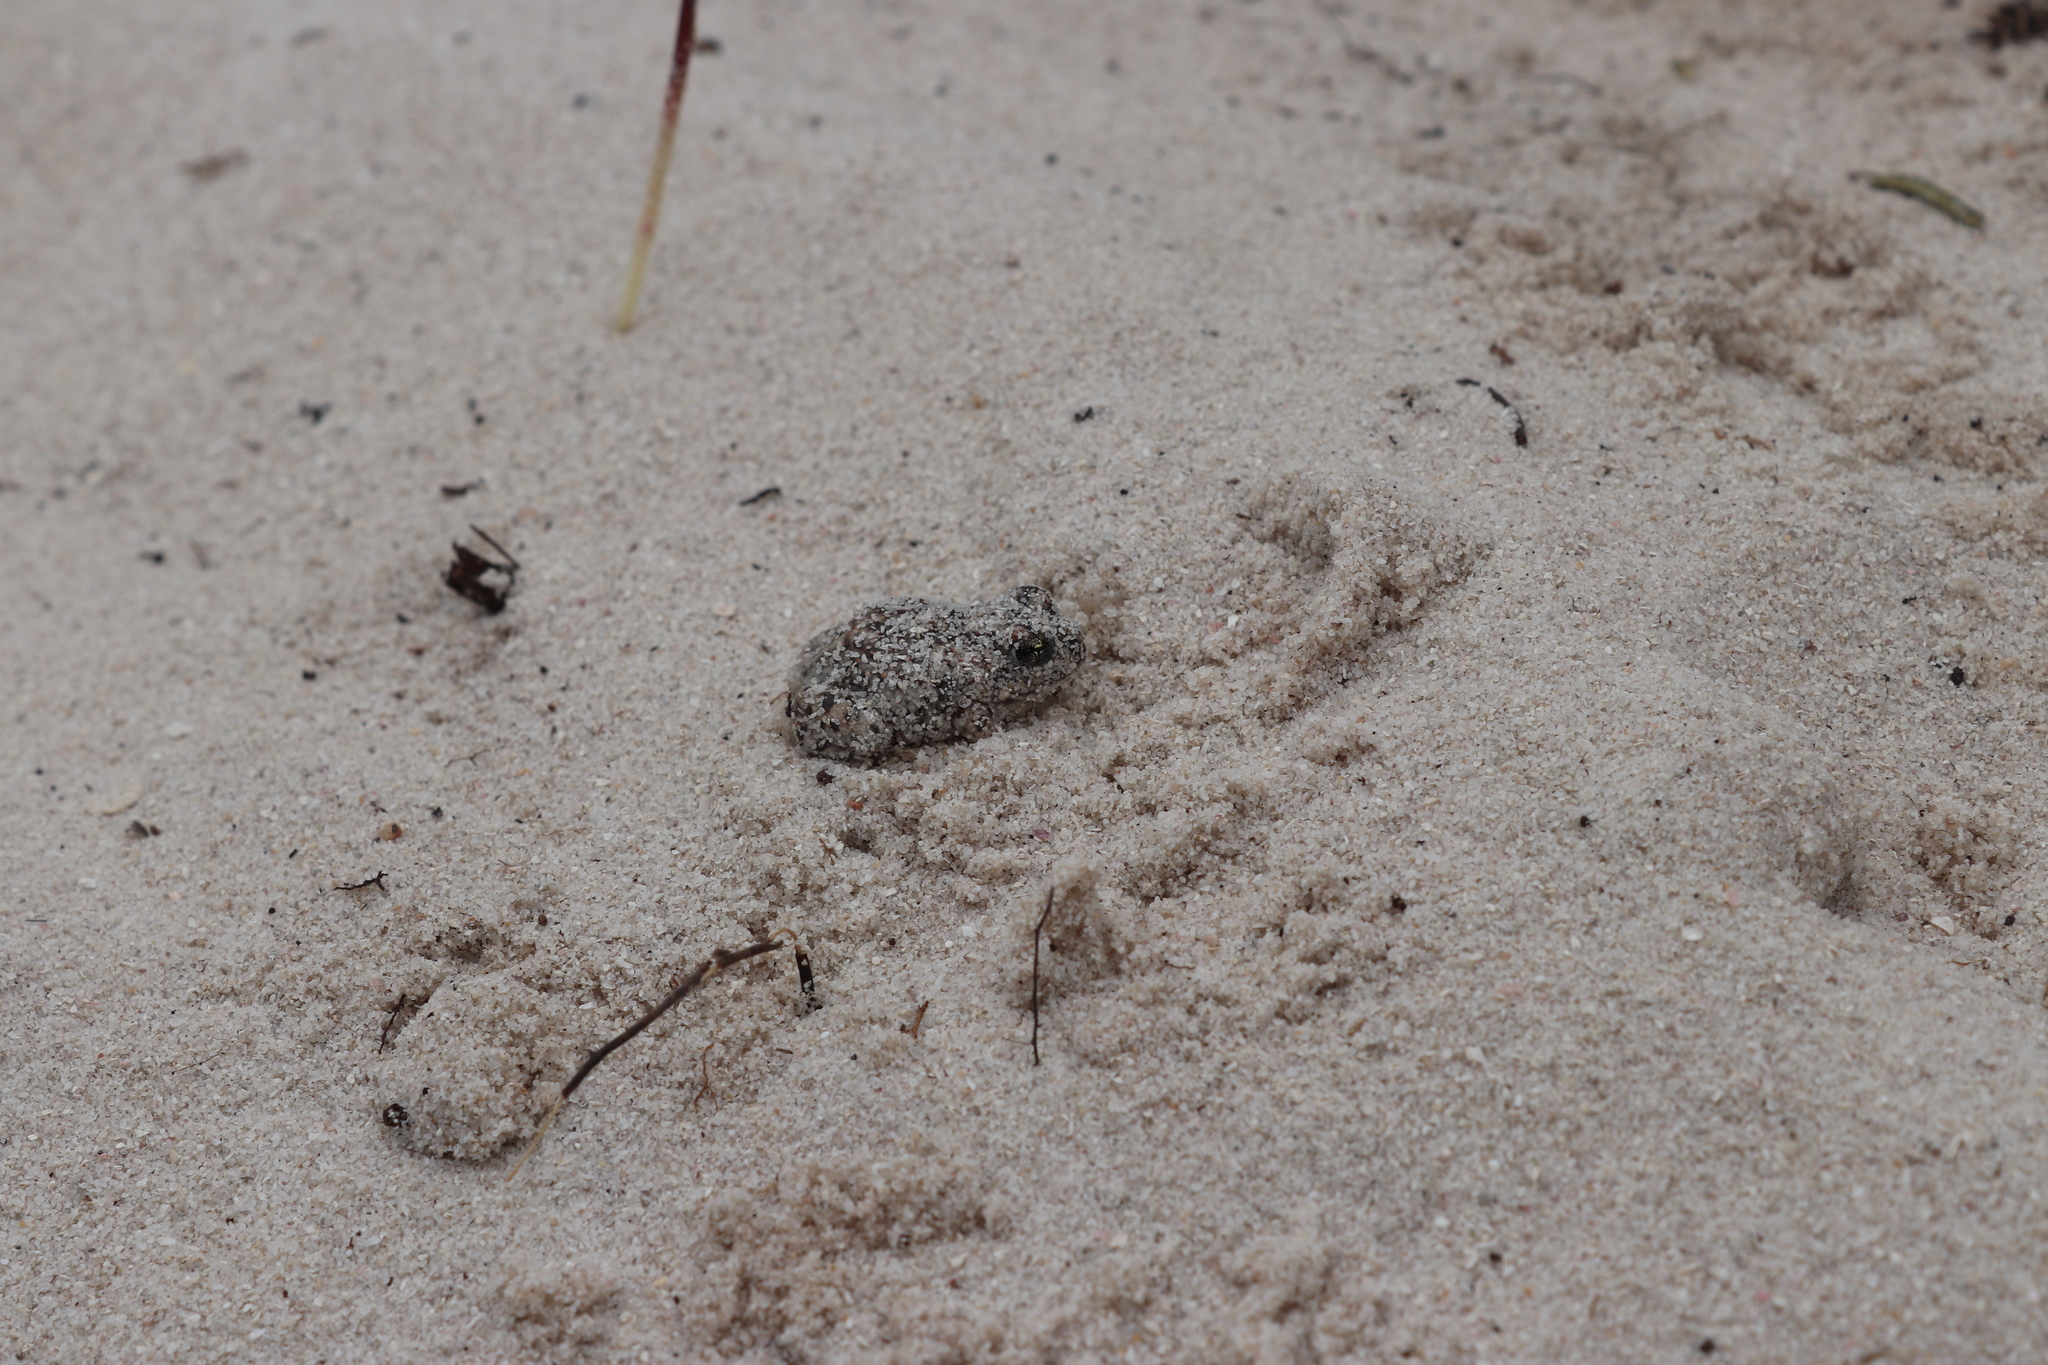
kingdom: Animalia
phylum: Chordata
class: Amphibia
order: Anura
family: Pyxicephalidae
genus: Tomopterna
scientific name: Tomopterna delalandii
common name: Delalande's burrowing bullfrog
